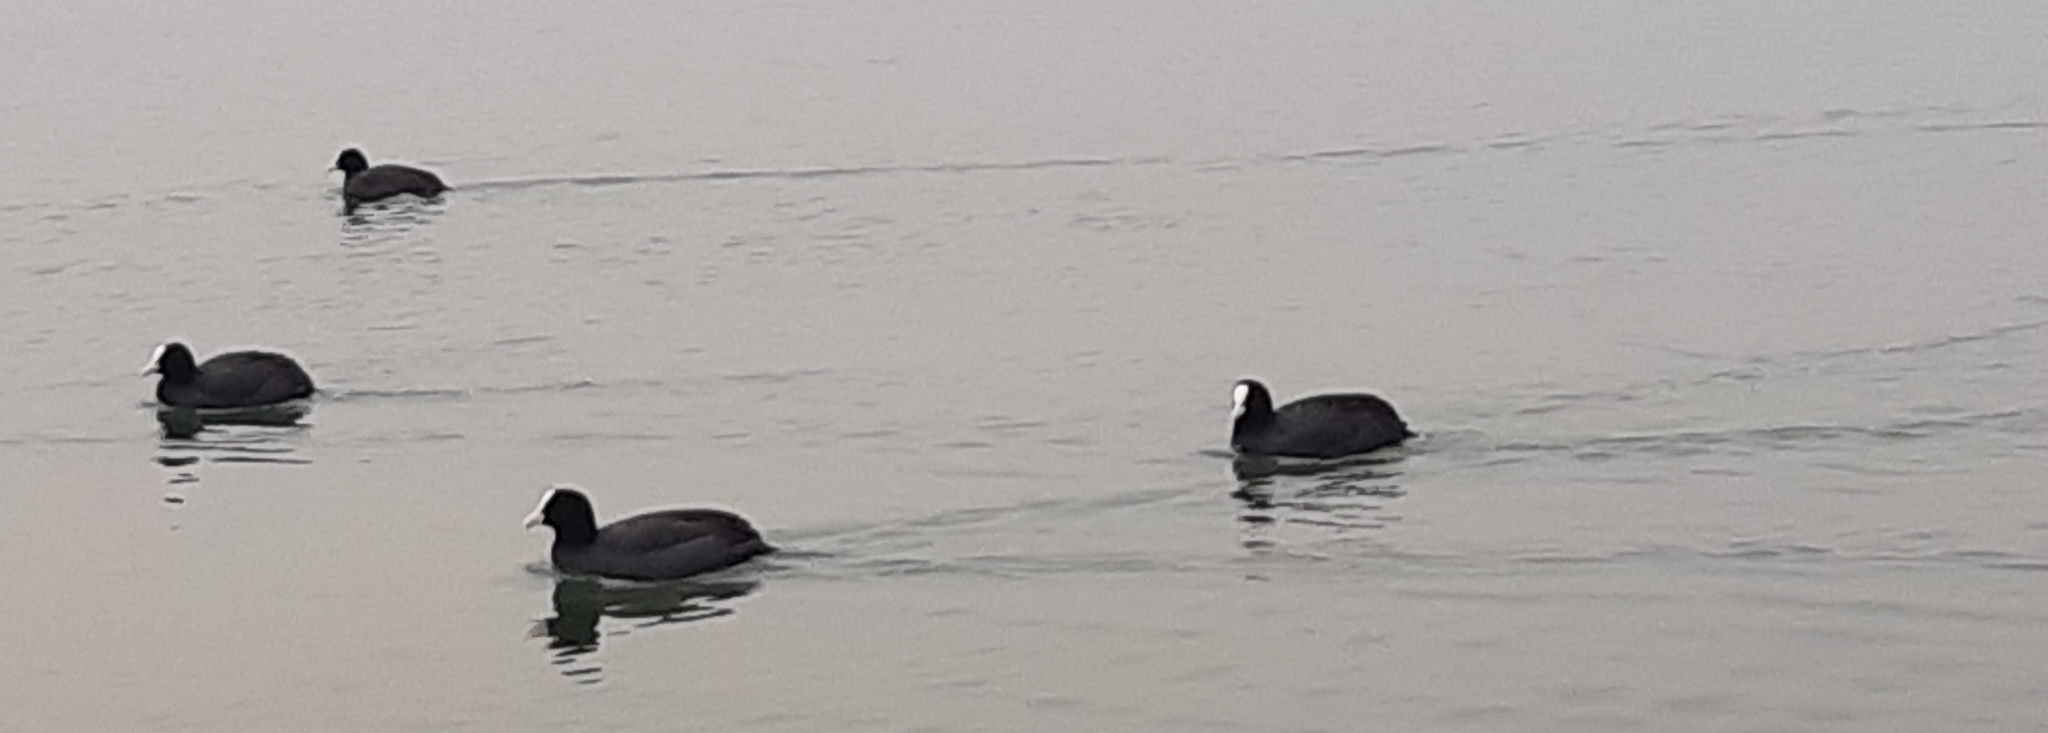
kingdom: Animalia
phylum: Chordata
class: Aves
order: Gruiformes
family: Rallidae
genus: Fulica
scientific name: Fulica atra
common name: Eurasian coot
